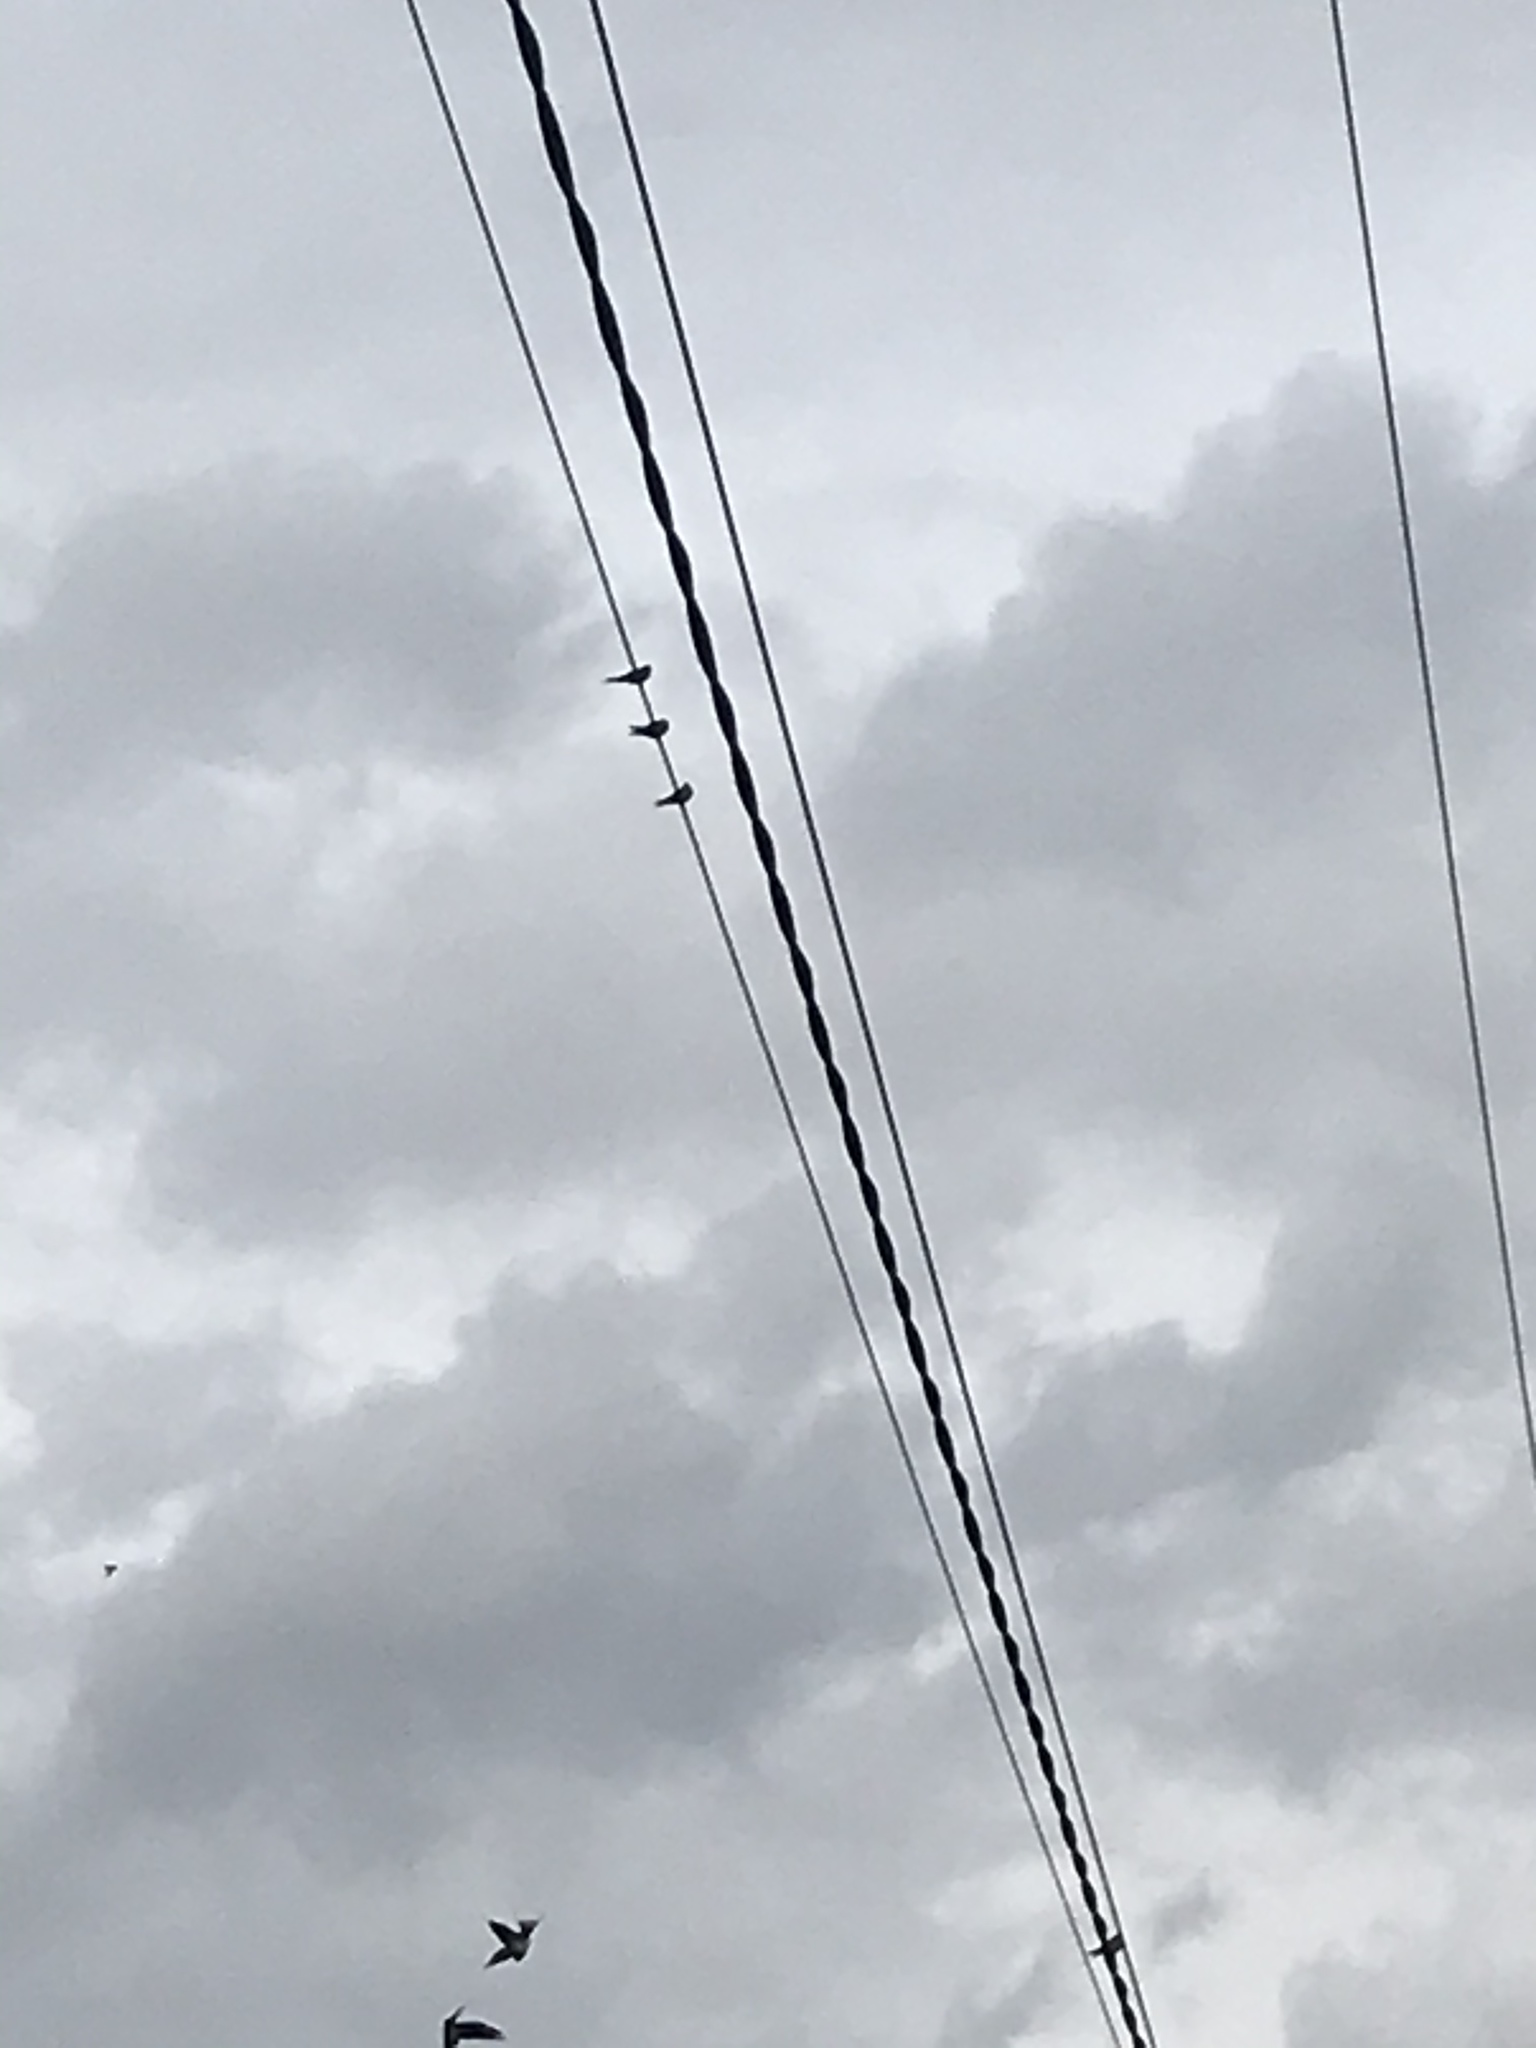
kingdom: Animalia
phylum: Chordata
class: Aves
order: Passeriformes
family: Hirundinidae
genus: Hirundo
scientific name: Hirundo rustica
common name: Barn swallow
